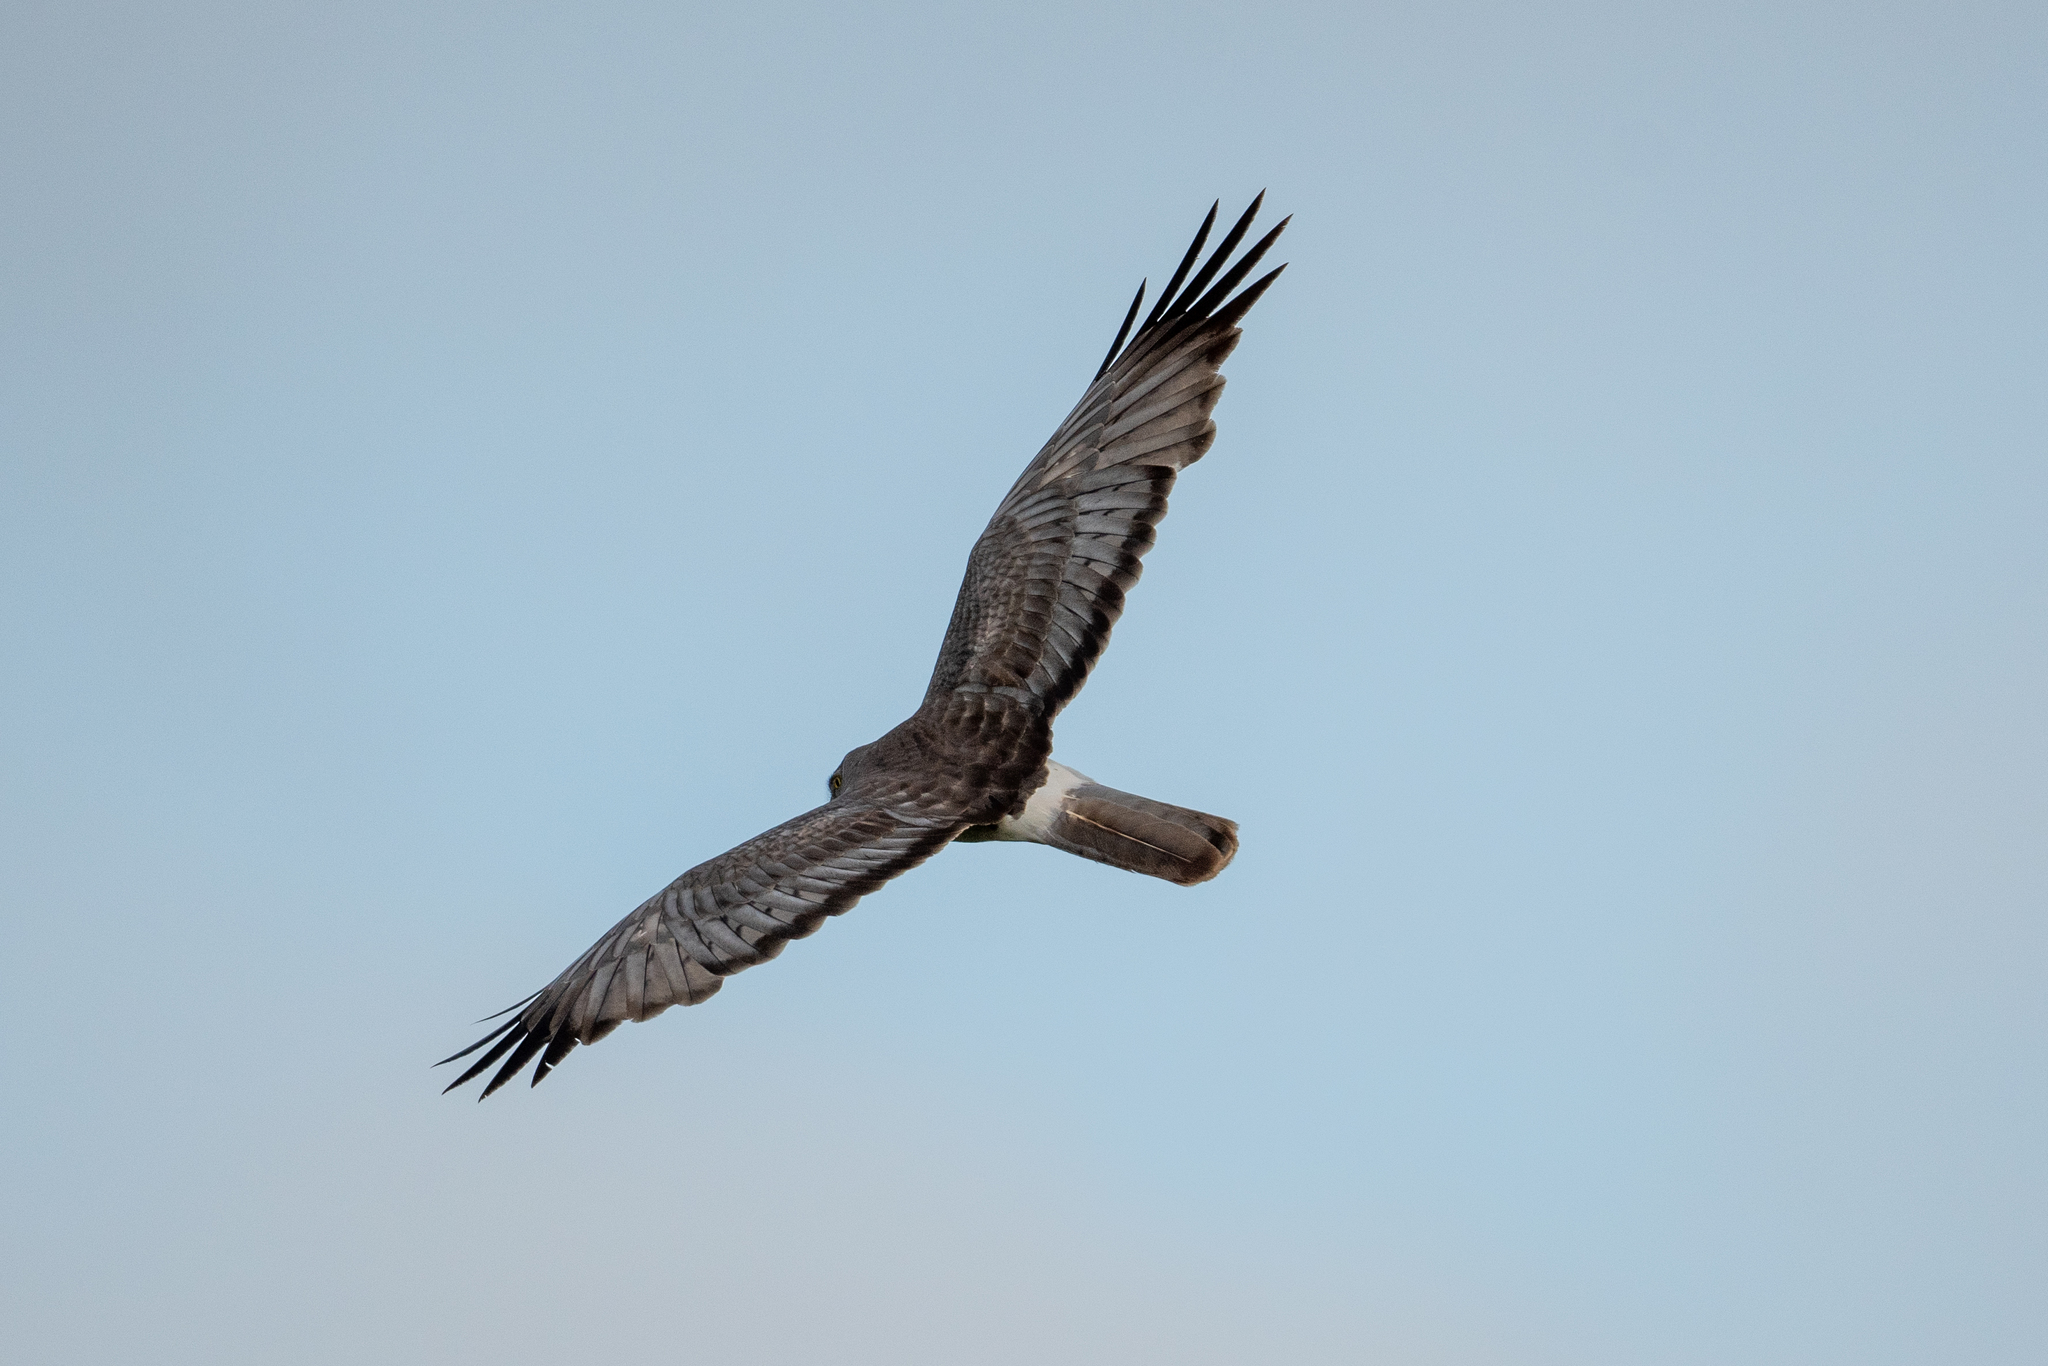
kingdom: Animalia
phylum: Chordata
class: Aves
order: Accipitriformes
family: Accipitridae
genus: Circus
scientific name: Circus cyaneus
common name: Hen harrier
